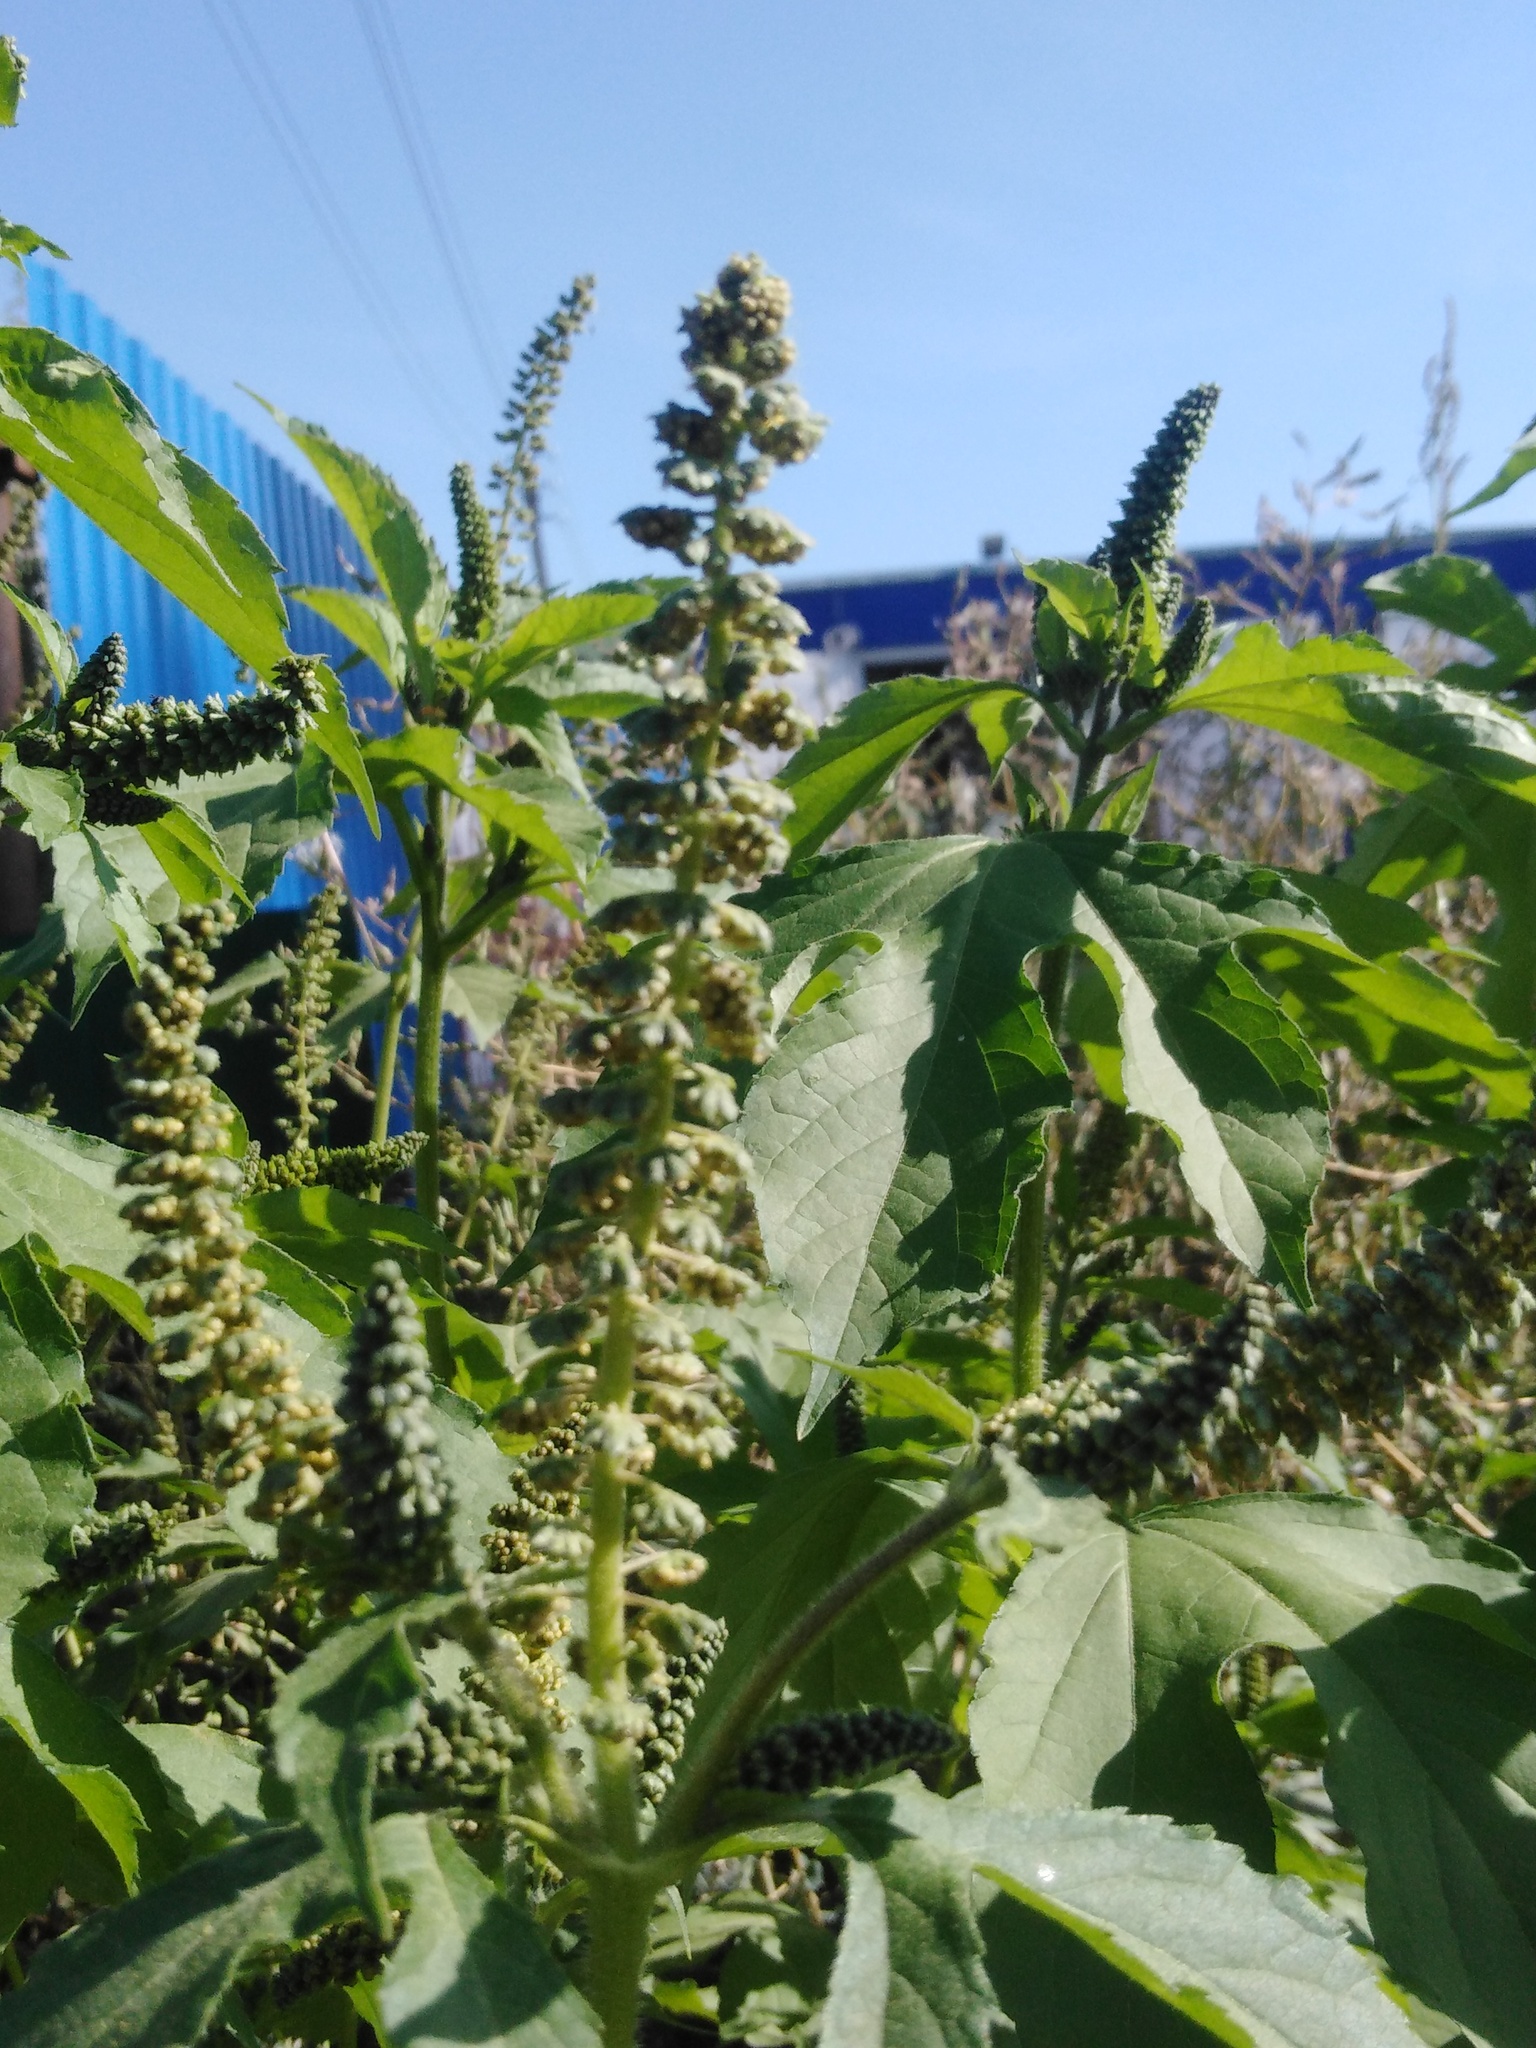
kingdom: Plantae
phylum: Tracheophyta
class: Magnoliopsida
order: Asterales
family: Asteraceae
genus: Ambrosia
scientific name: Ambrosia trifida
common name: Giant ragweed
